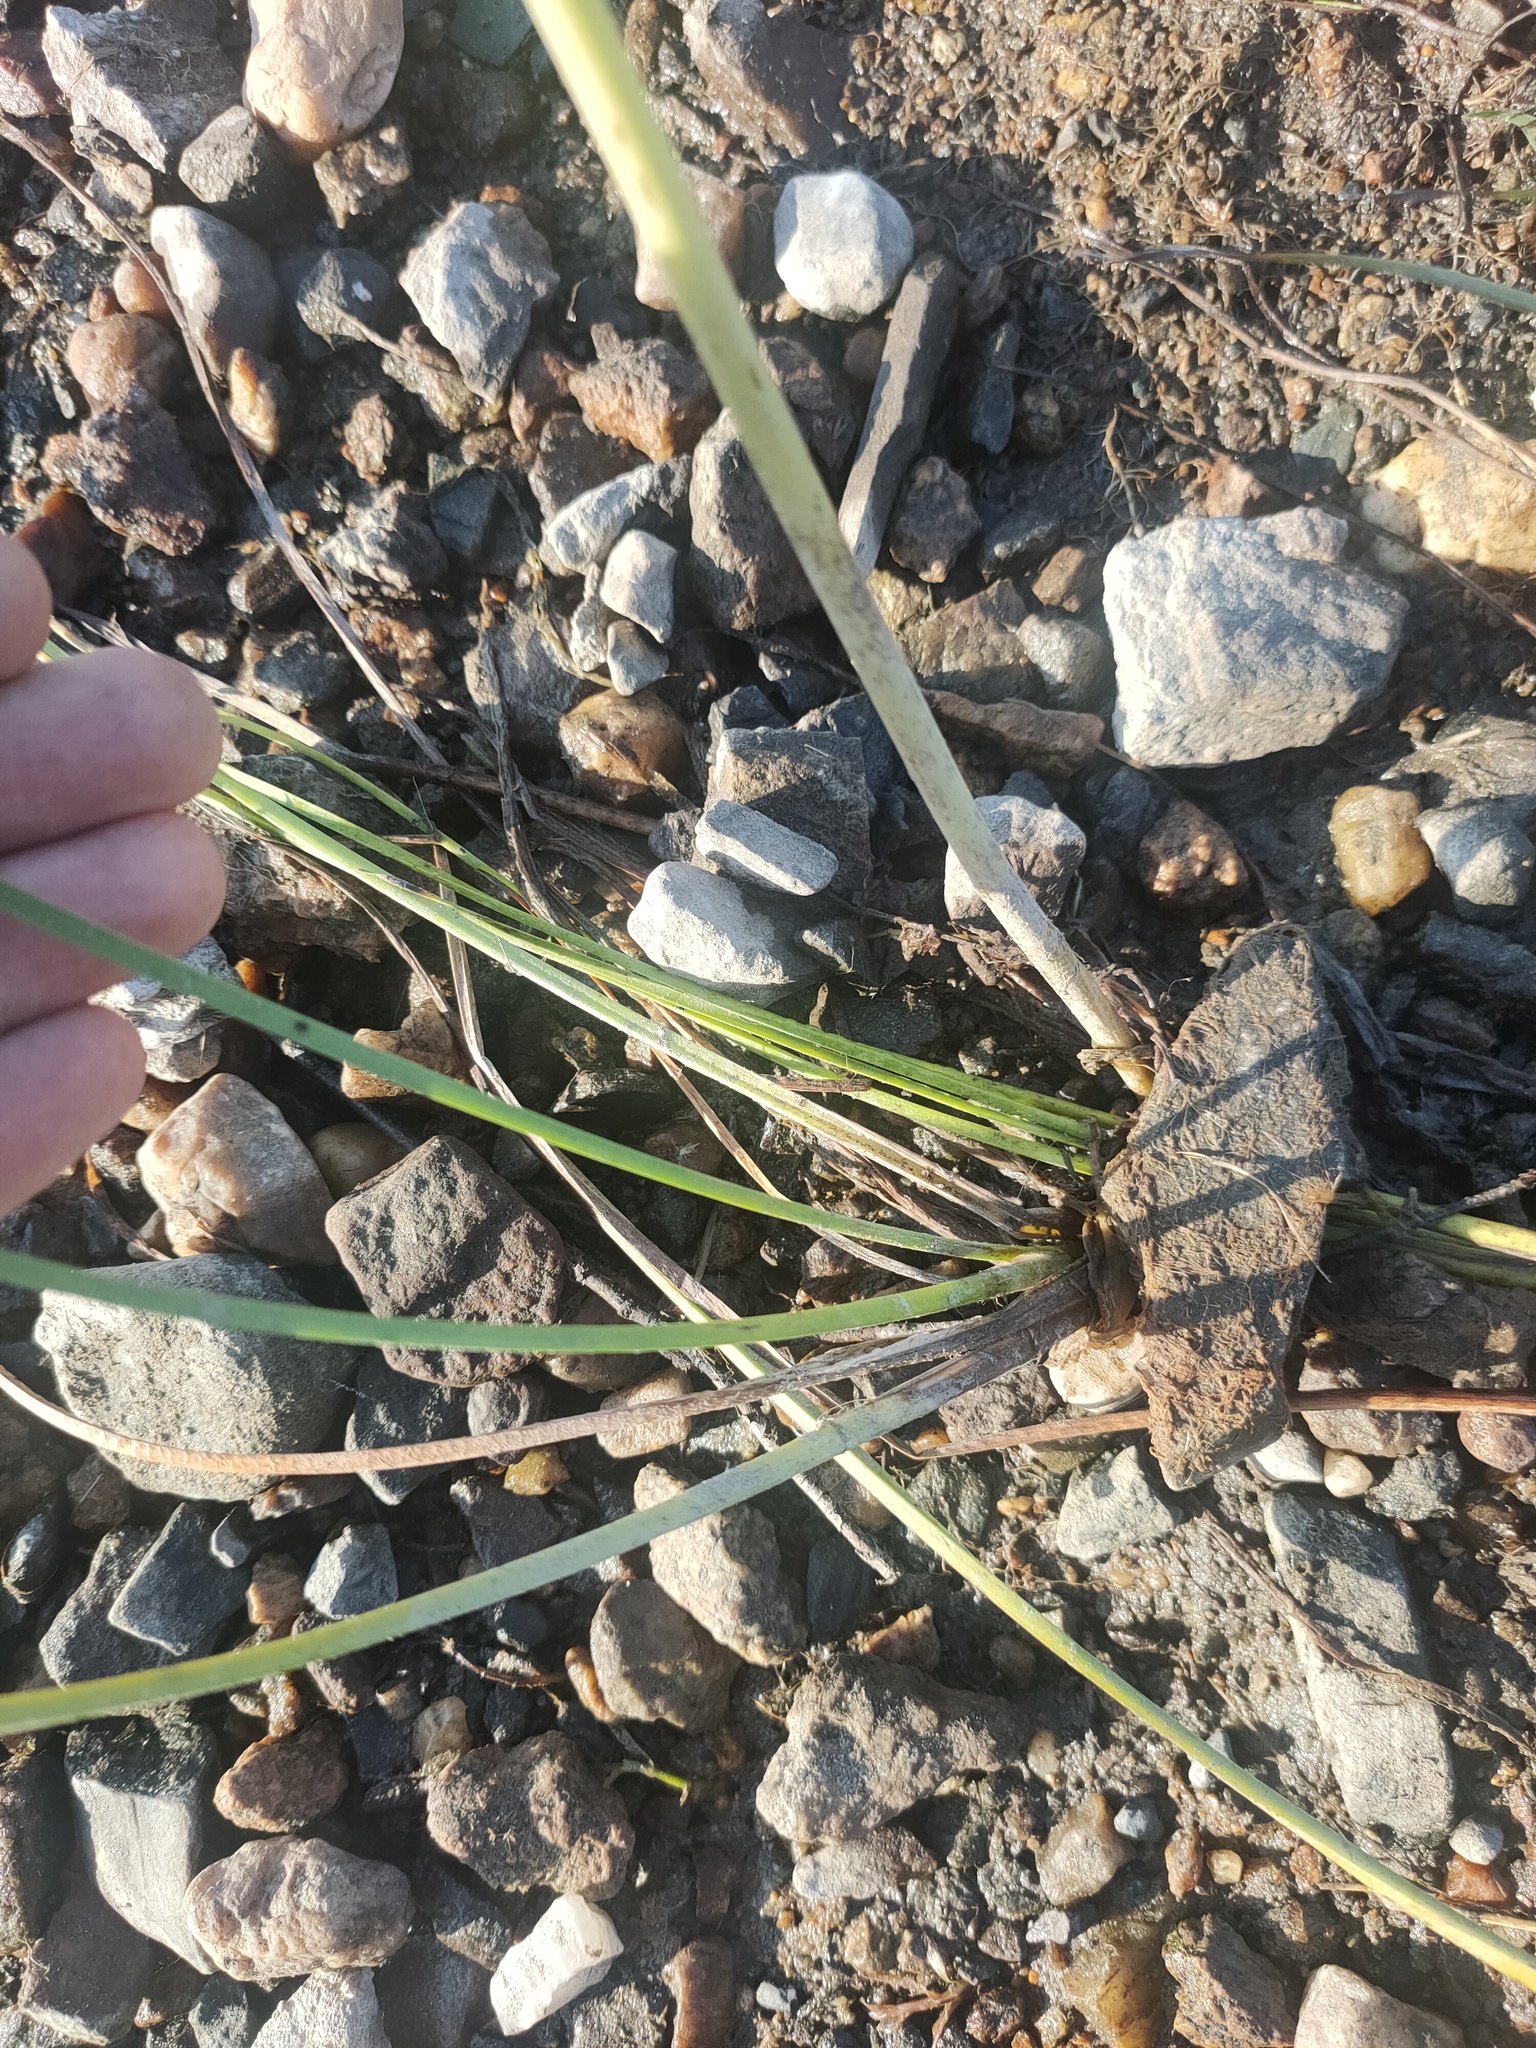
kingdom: Plantae
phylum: Tracheophyta
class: Liliopsida
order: Alismatales
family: Butomaceae
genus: Butomus
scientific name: Butomus umbellatus
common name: Flowering-rush
